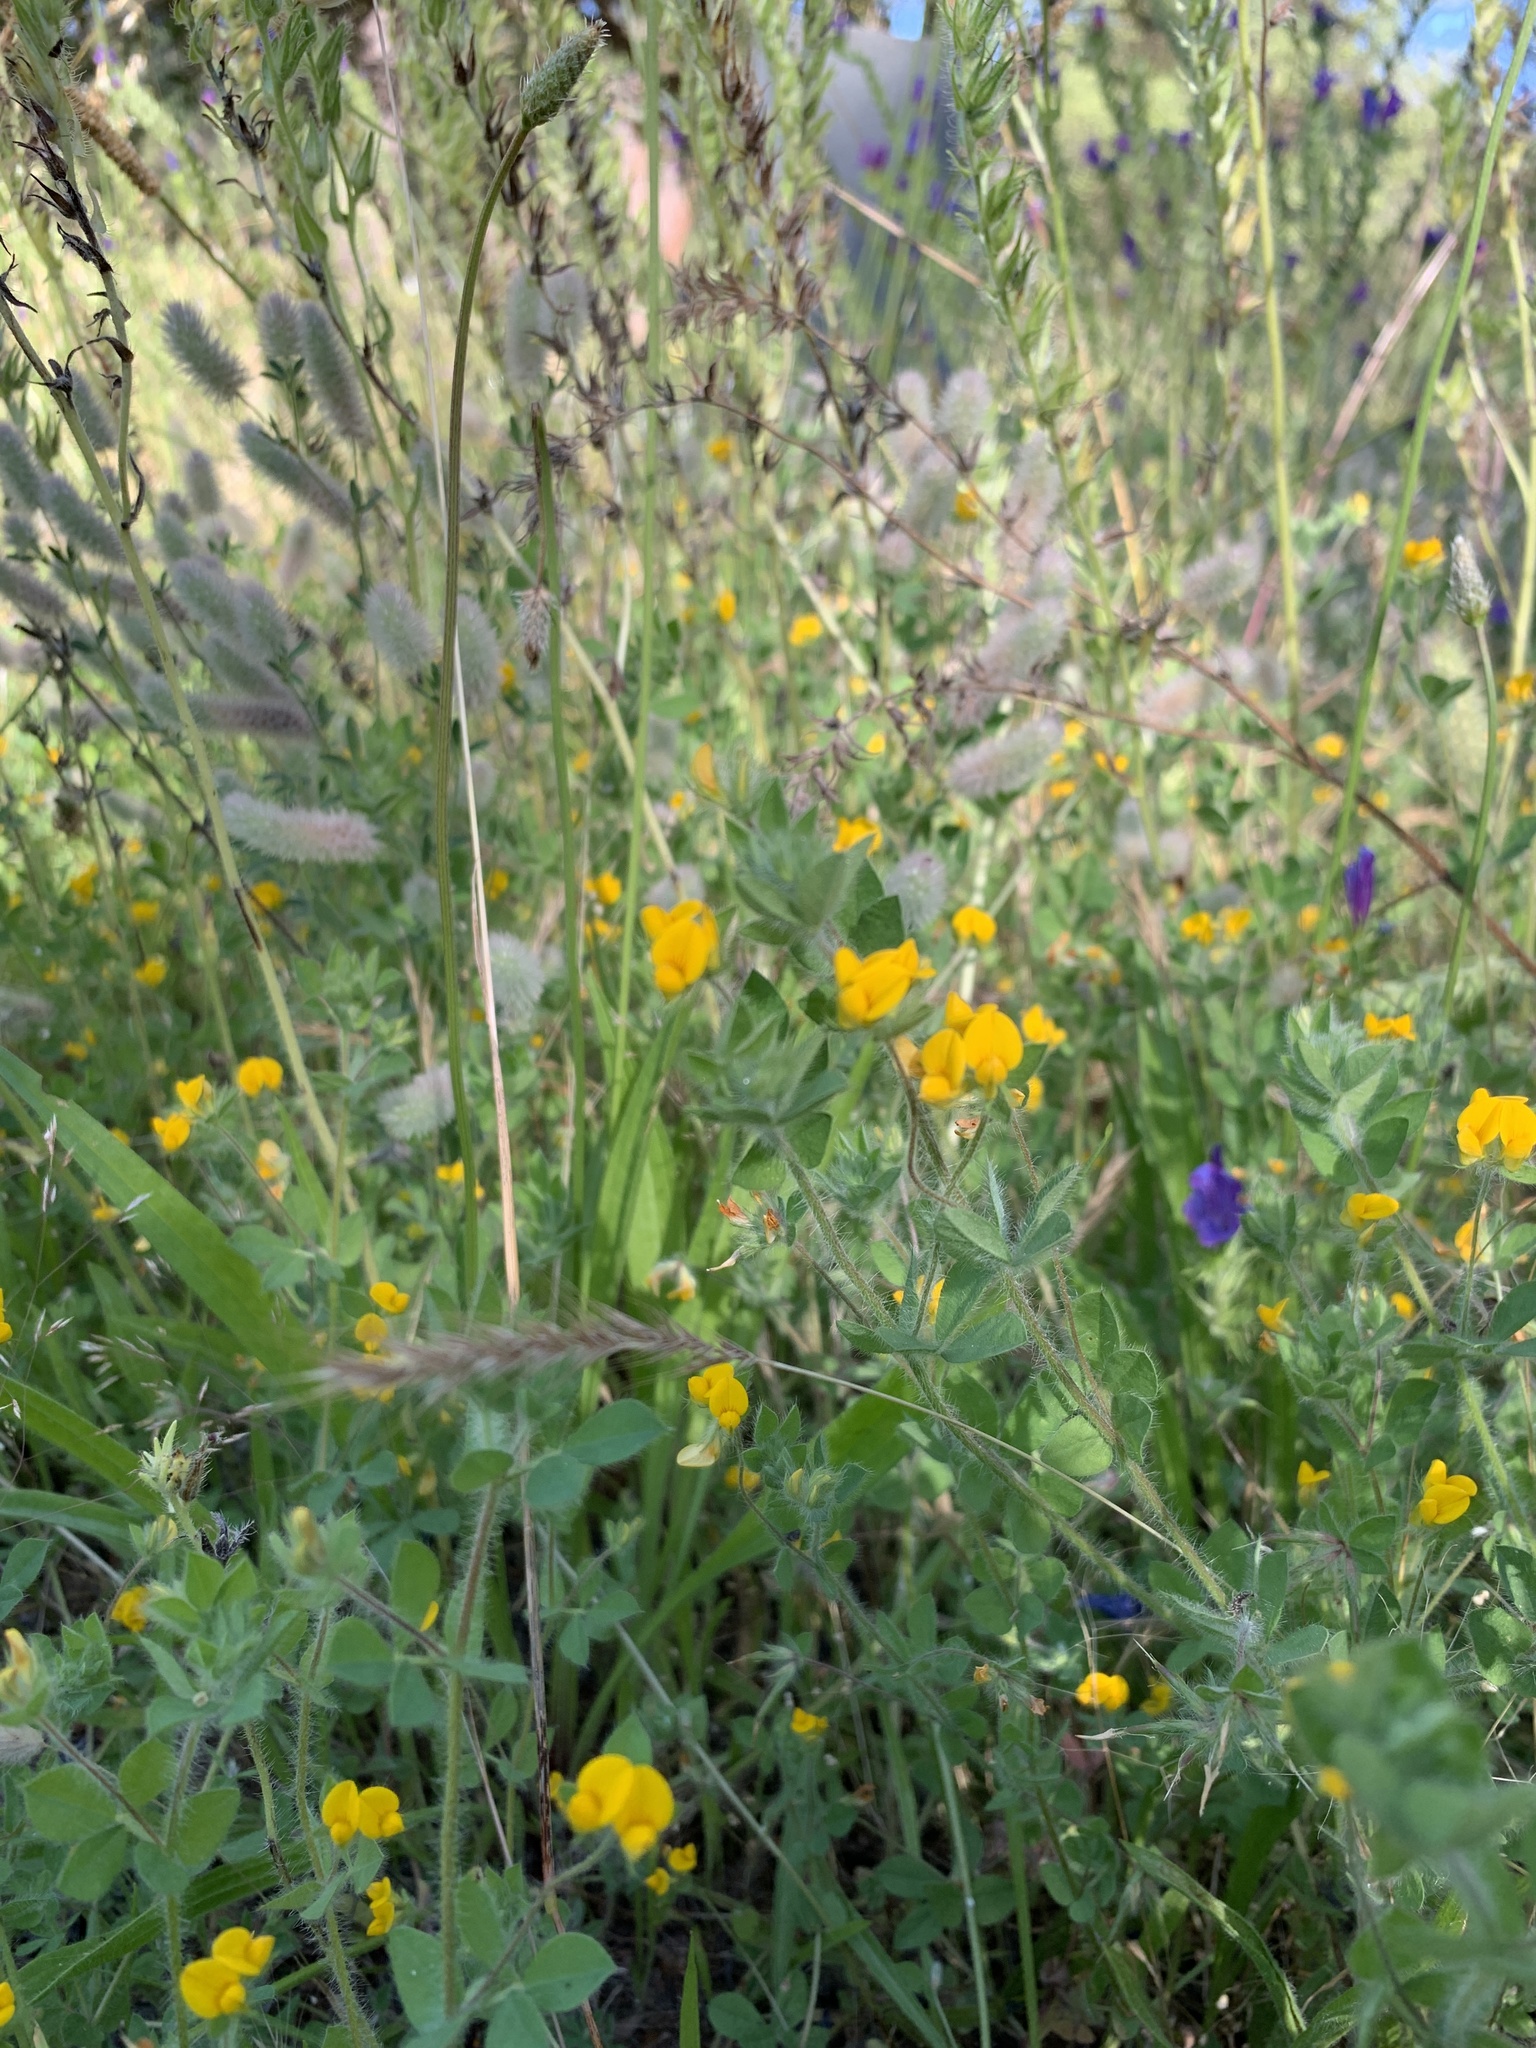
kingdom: Plantae
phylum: Tracheophyta
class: Magnoliopsida
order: Fabales
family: Fabaceae
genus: Lotus
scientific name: Lotus subbiflorus
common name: Hairy bird's-foot trefoil
